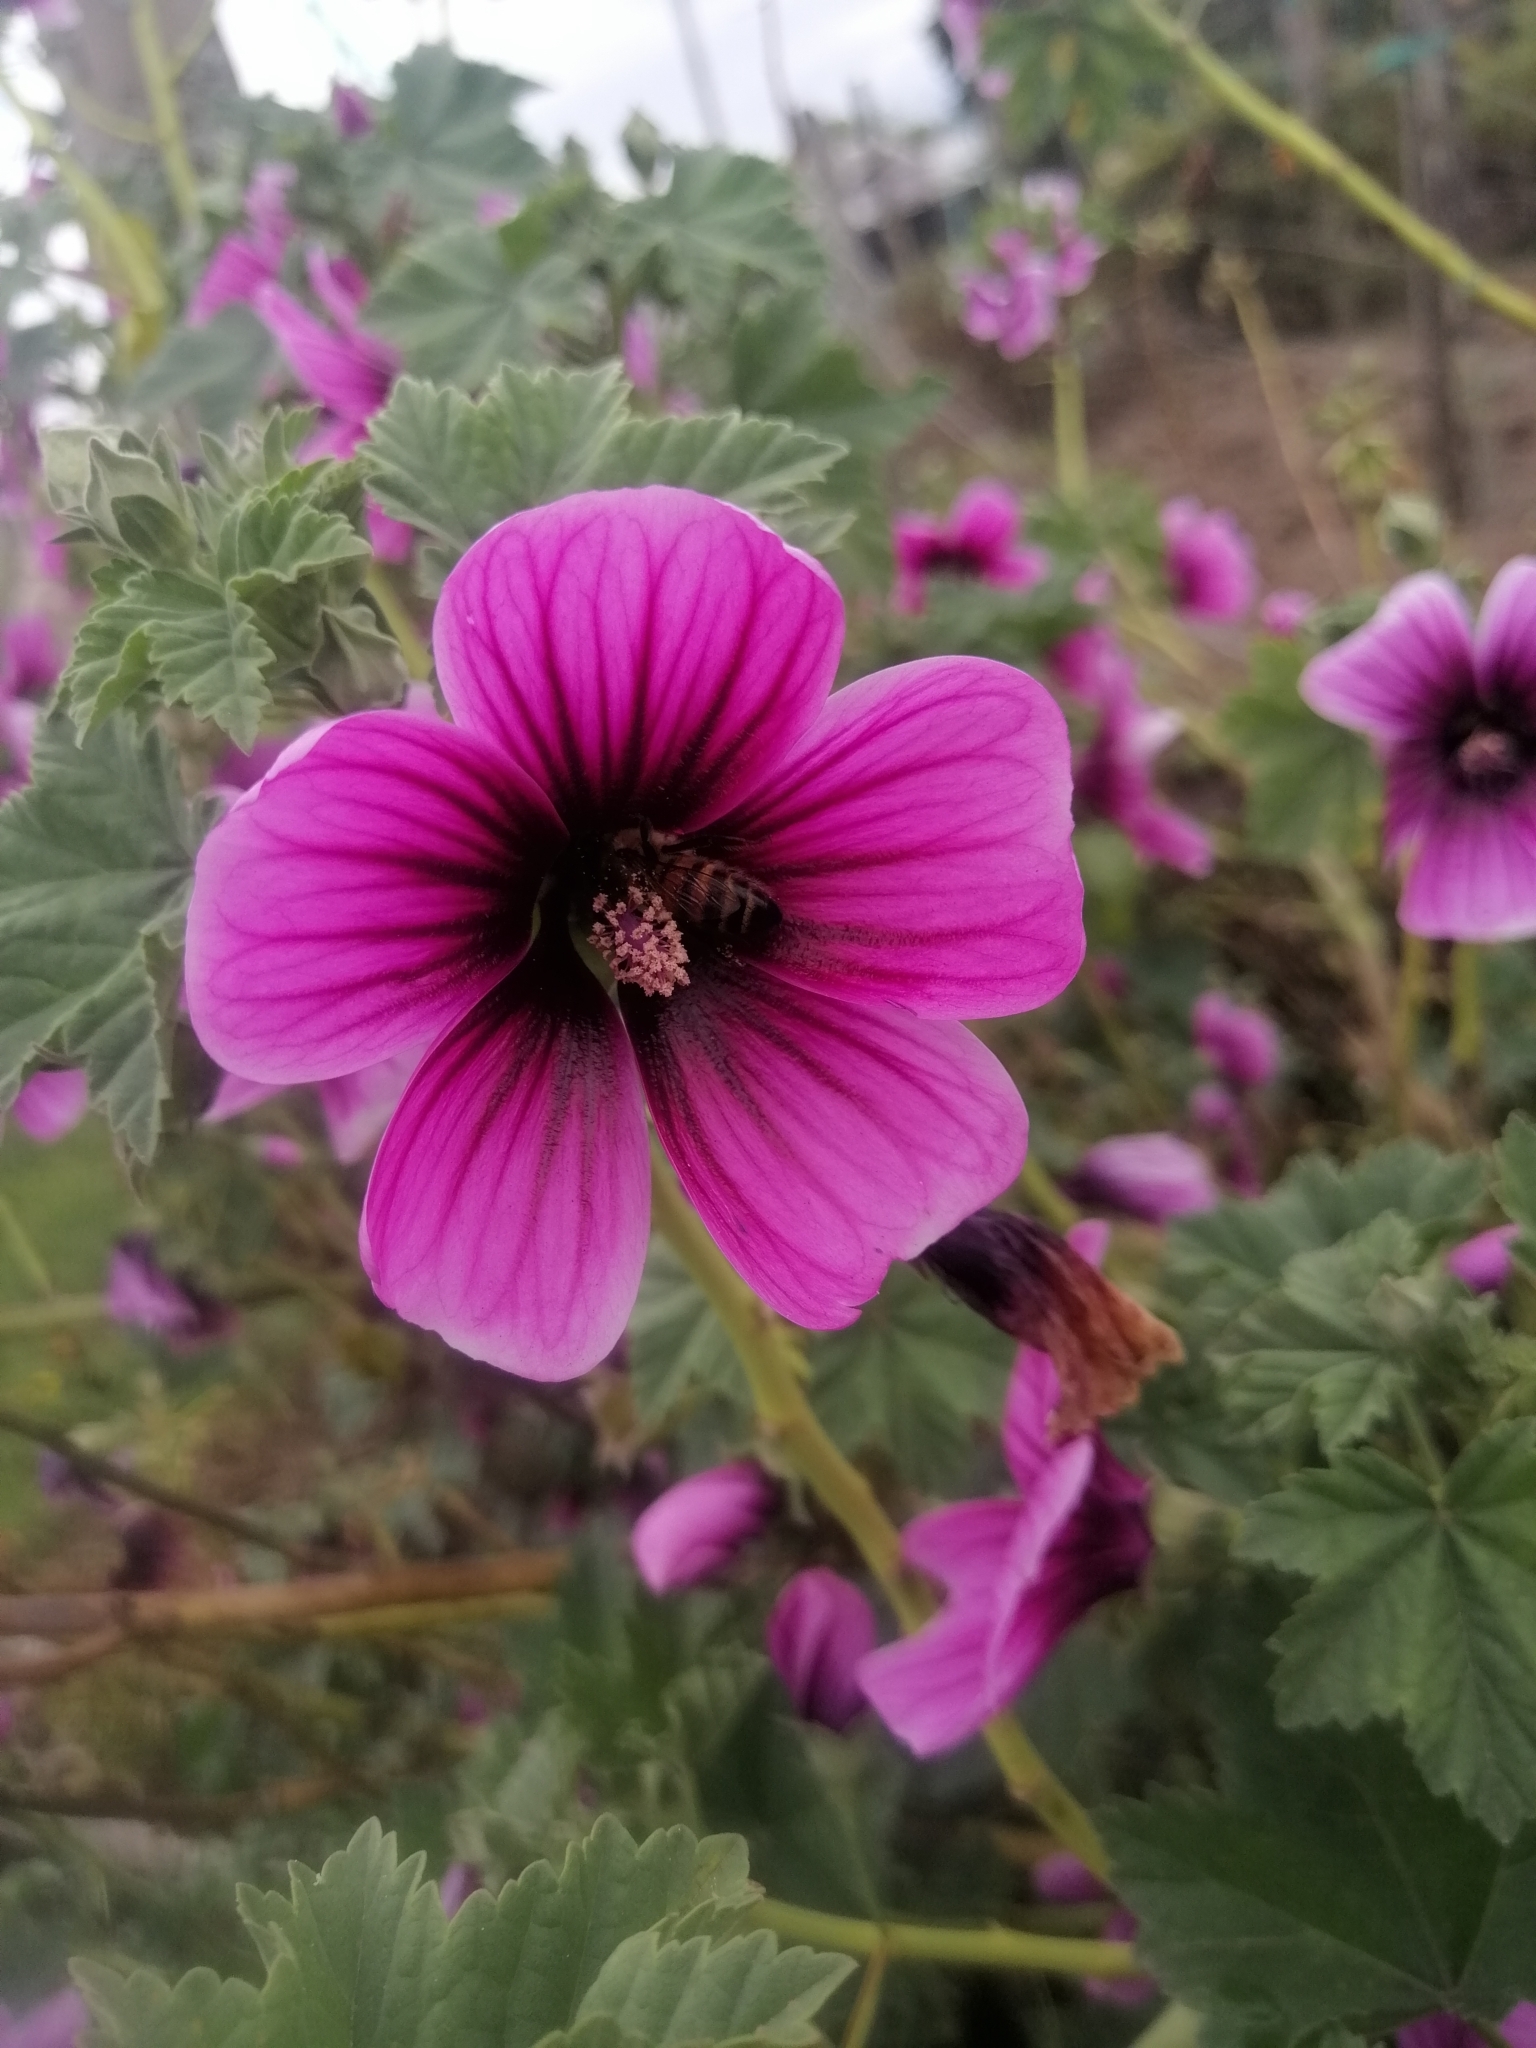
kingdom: Animalia
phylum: Arthropoda
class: Insecta
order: Hymenoptera
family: Apidae
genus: Apis
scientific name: Apis mellifera
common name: Honey bee
